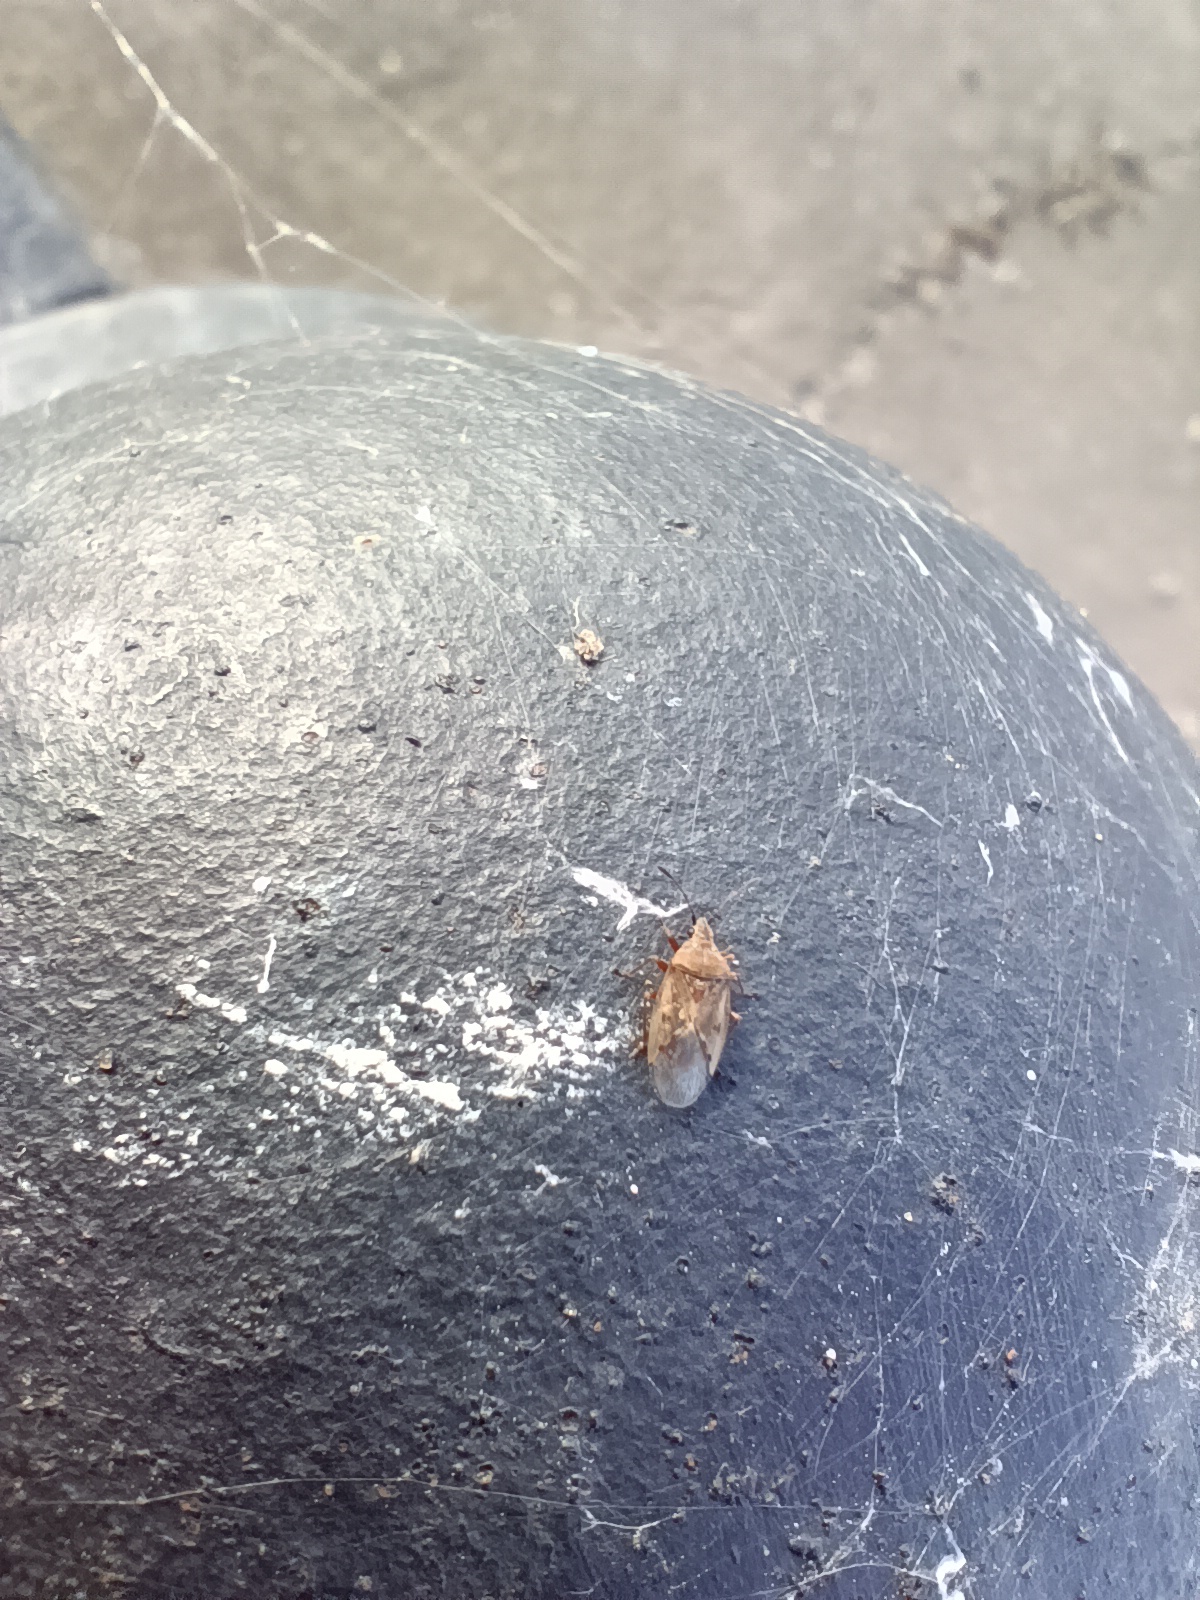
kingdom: Animalia
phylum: Arthropoda
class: Insecta
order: Hemiptera
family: Lygaeidae
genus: Kleidocerys
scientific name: Kleidocerys resedae
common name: Birch catkin bug
